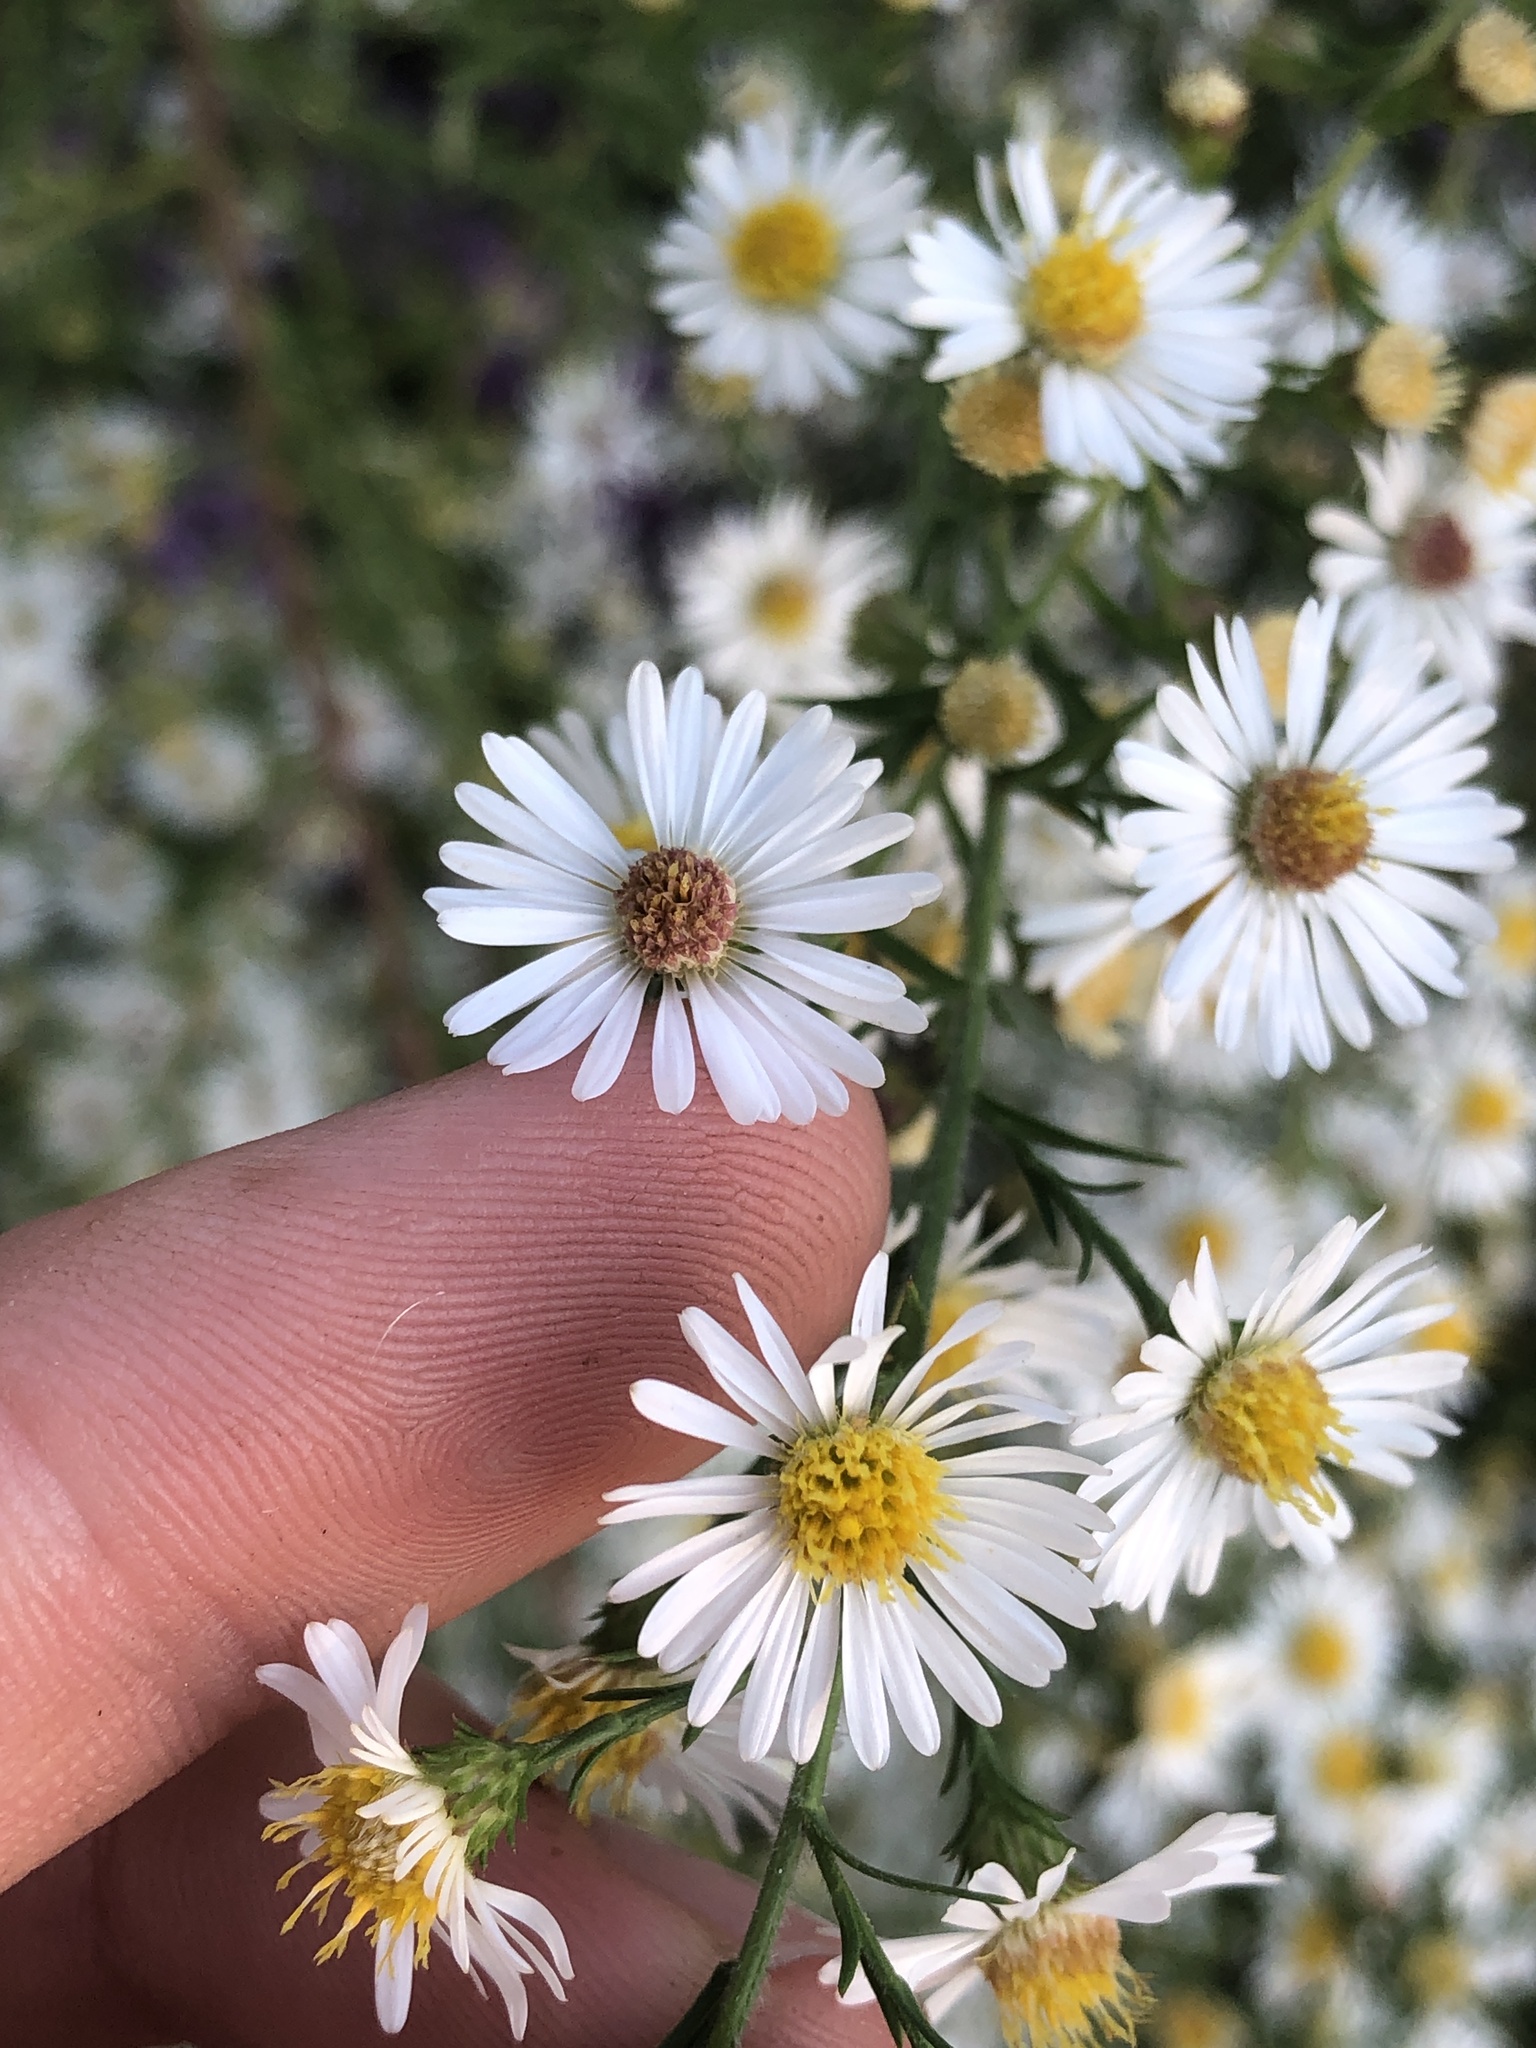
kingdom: Plantae
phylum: Tracheophyta
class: Magnoliopsida
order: Asterales
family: Asteraceae
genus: Symphyotrichum
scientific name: Symphyotrichum pilosum
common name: Awl aster
